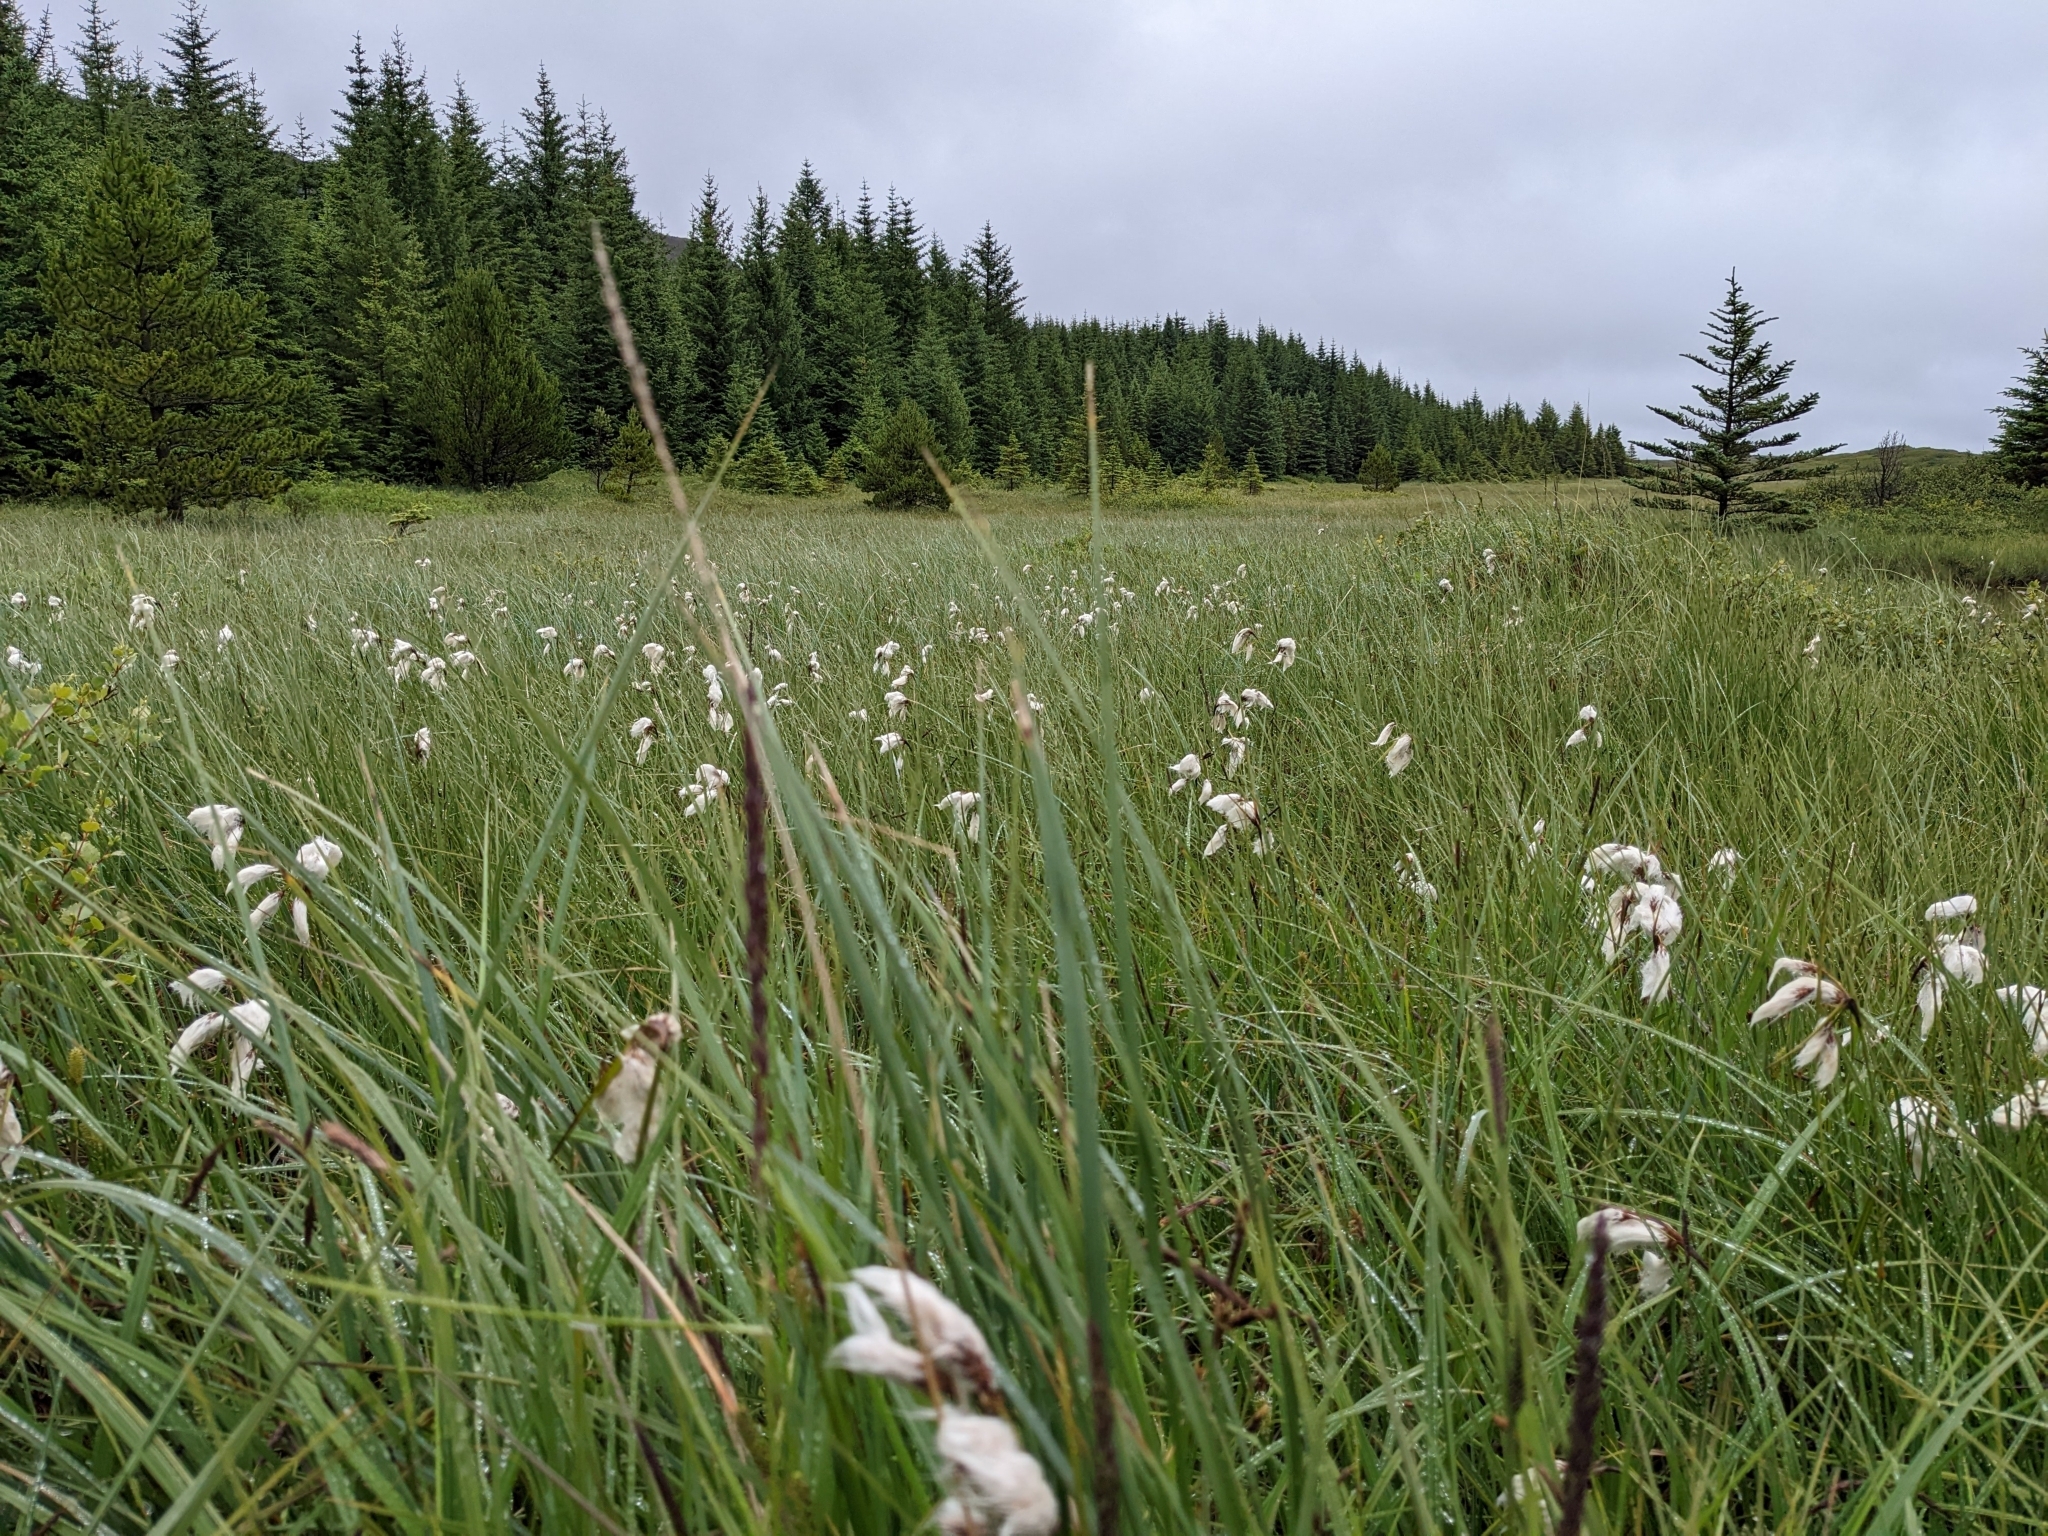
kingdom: Plantae
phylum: Tracheophyta
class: Liliopsida
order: Poales
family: Cyperaceae
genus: Eriophorum
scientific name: Eriophorum angustifolium
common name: Common cottongrass
